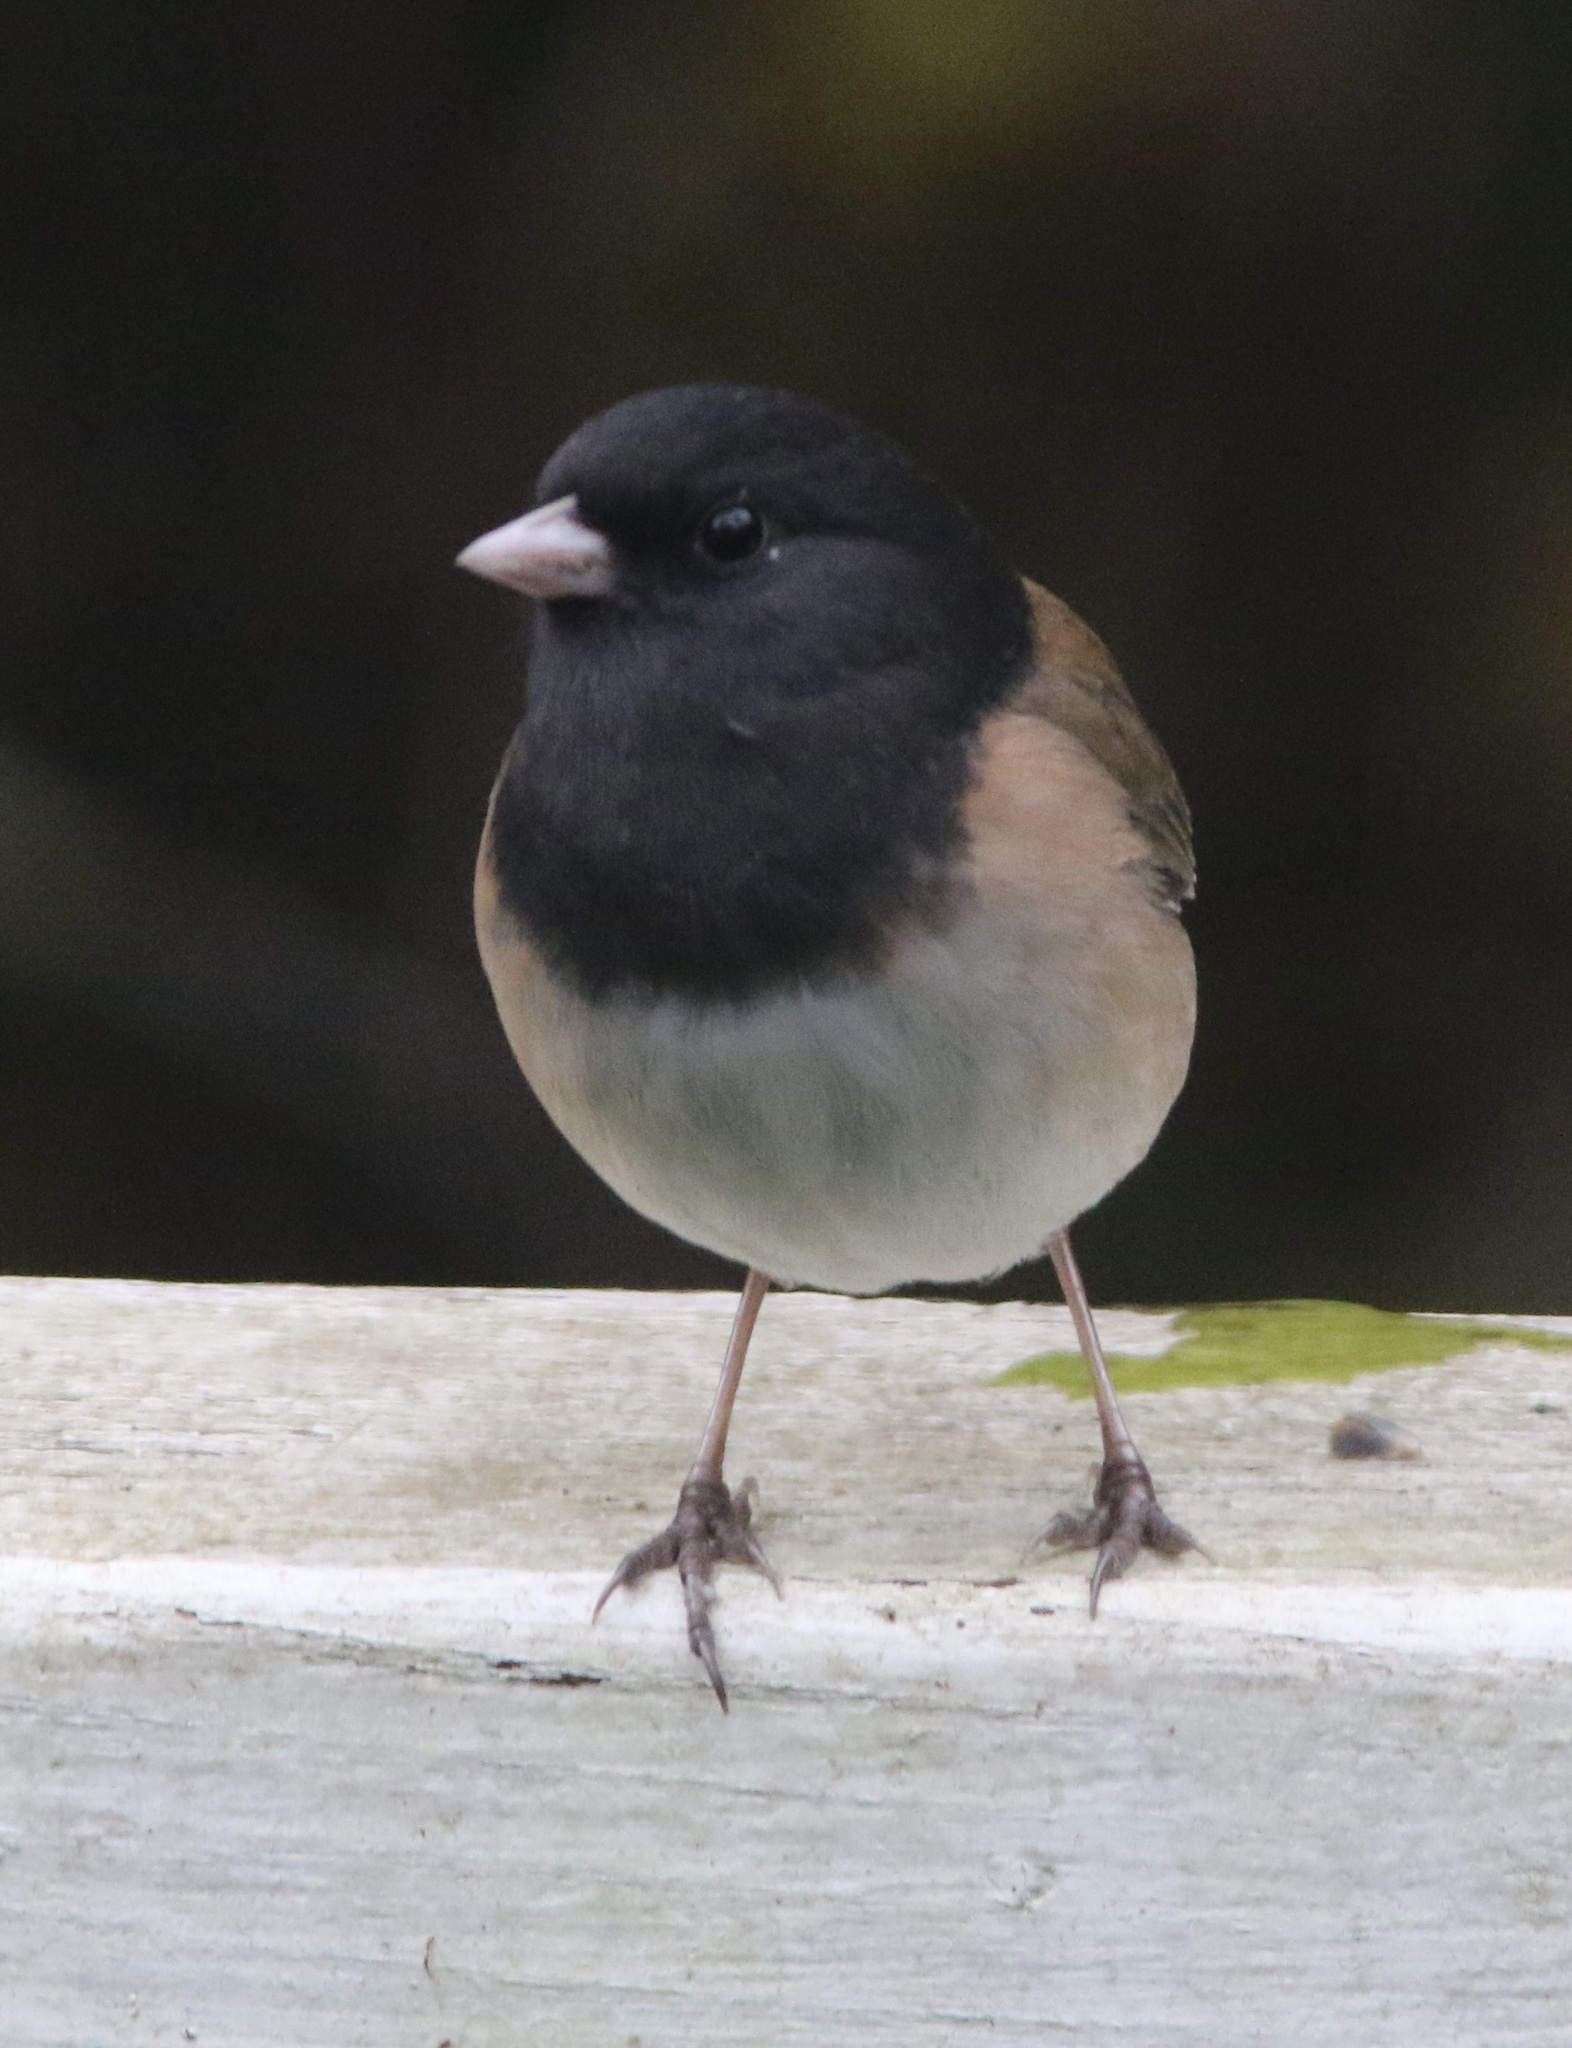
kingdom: Animalia
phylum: Chordata
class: Aves
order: Passeriformes
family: Passerellidae
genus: Junco
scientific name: Junco hyemalis
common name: Dark-eyed junco
